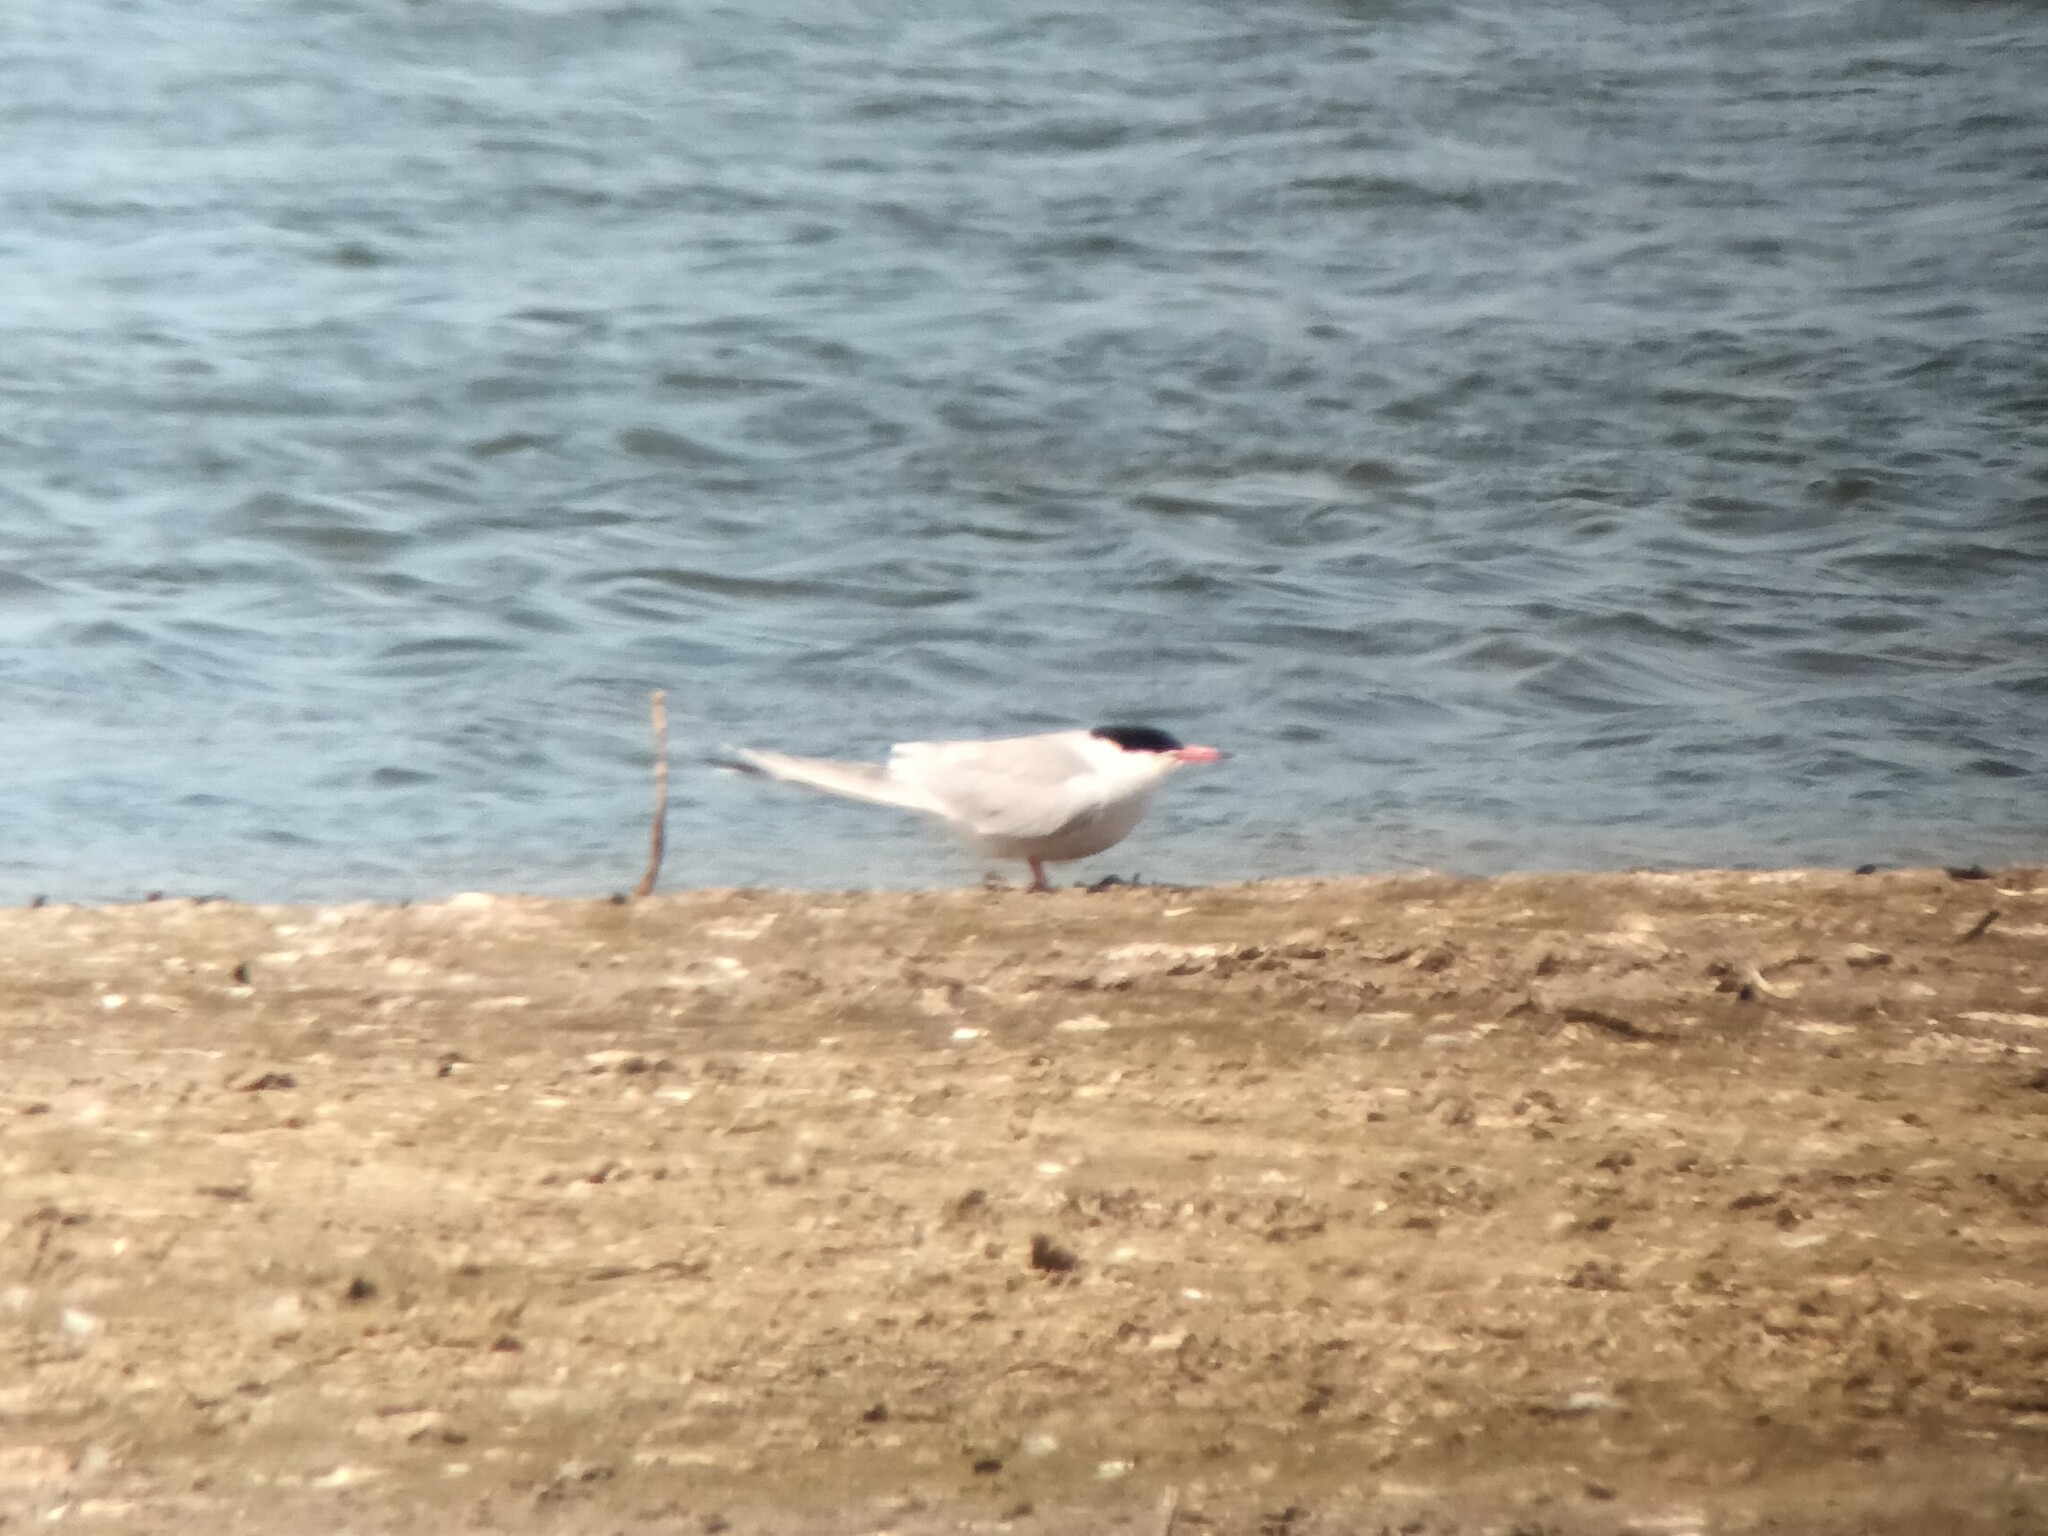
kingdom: Animalia
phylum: Chordata
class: Aves
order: Charadriiformes
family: Laridae
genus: Sterna
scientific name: Sterna hirundo
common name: Common tern
